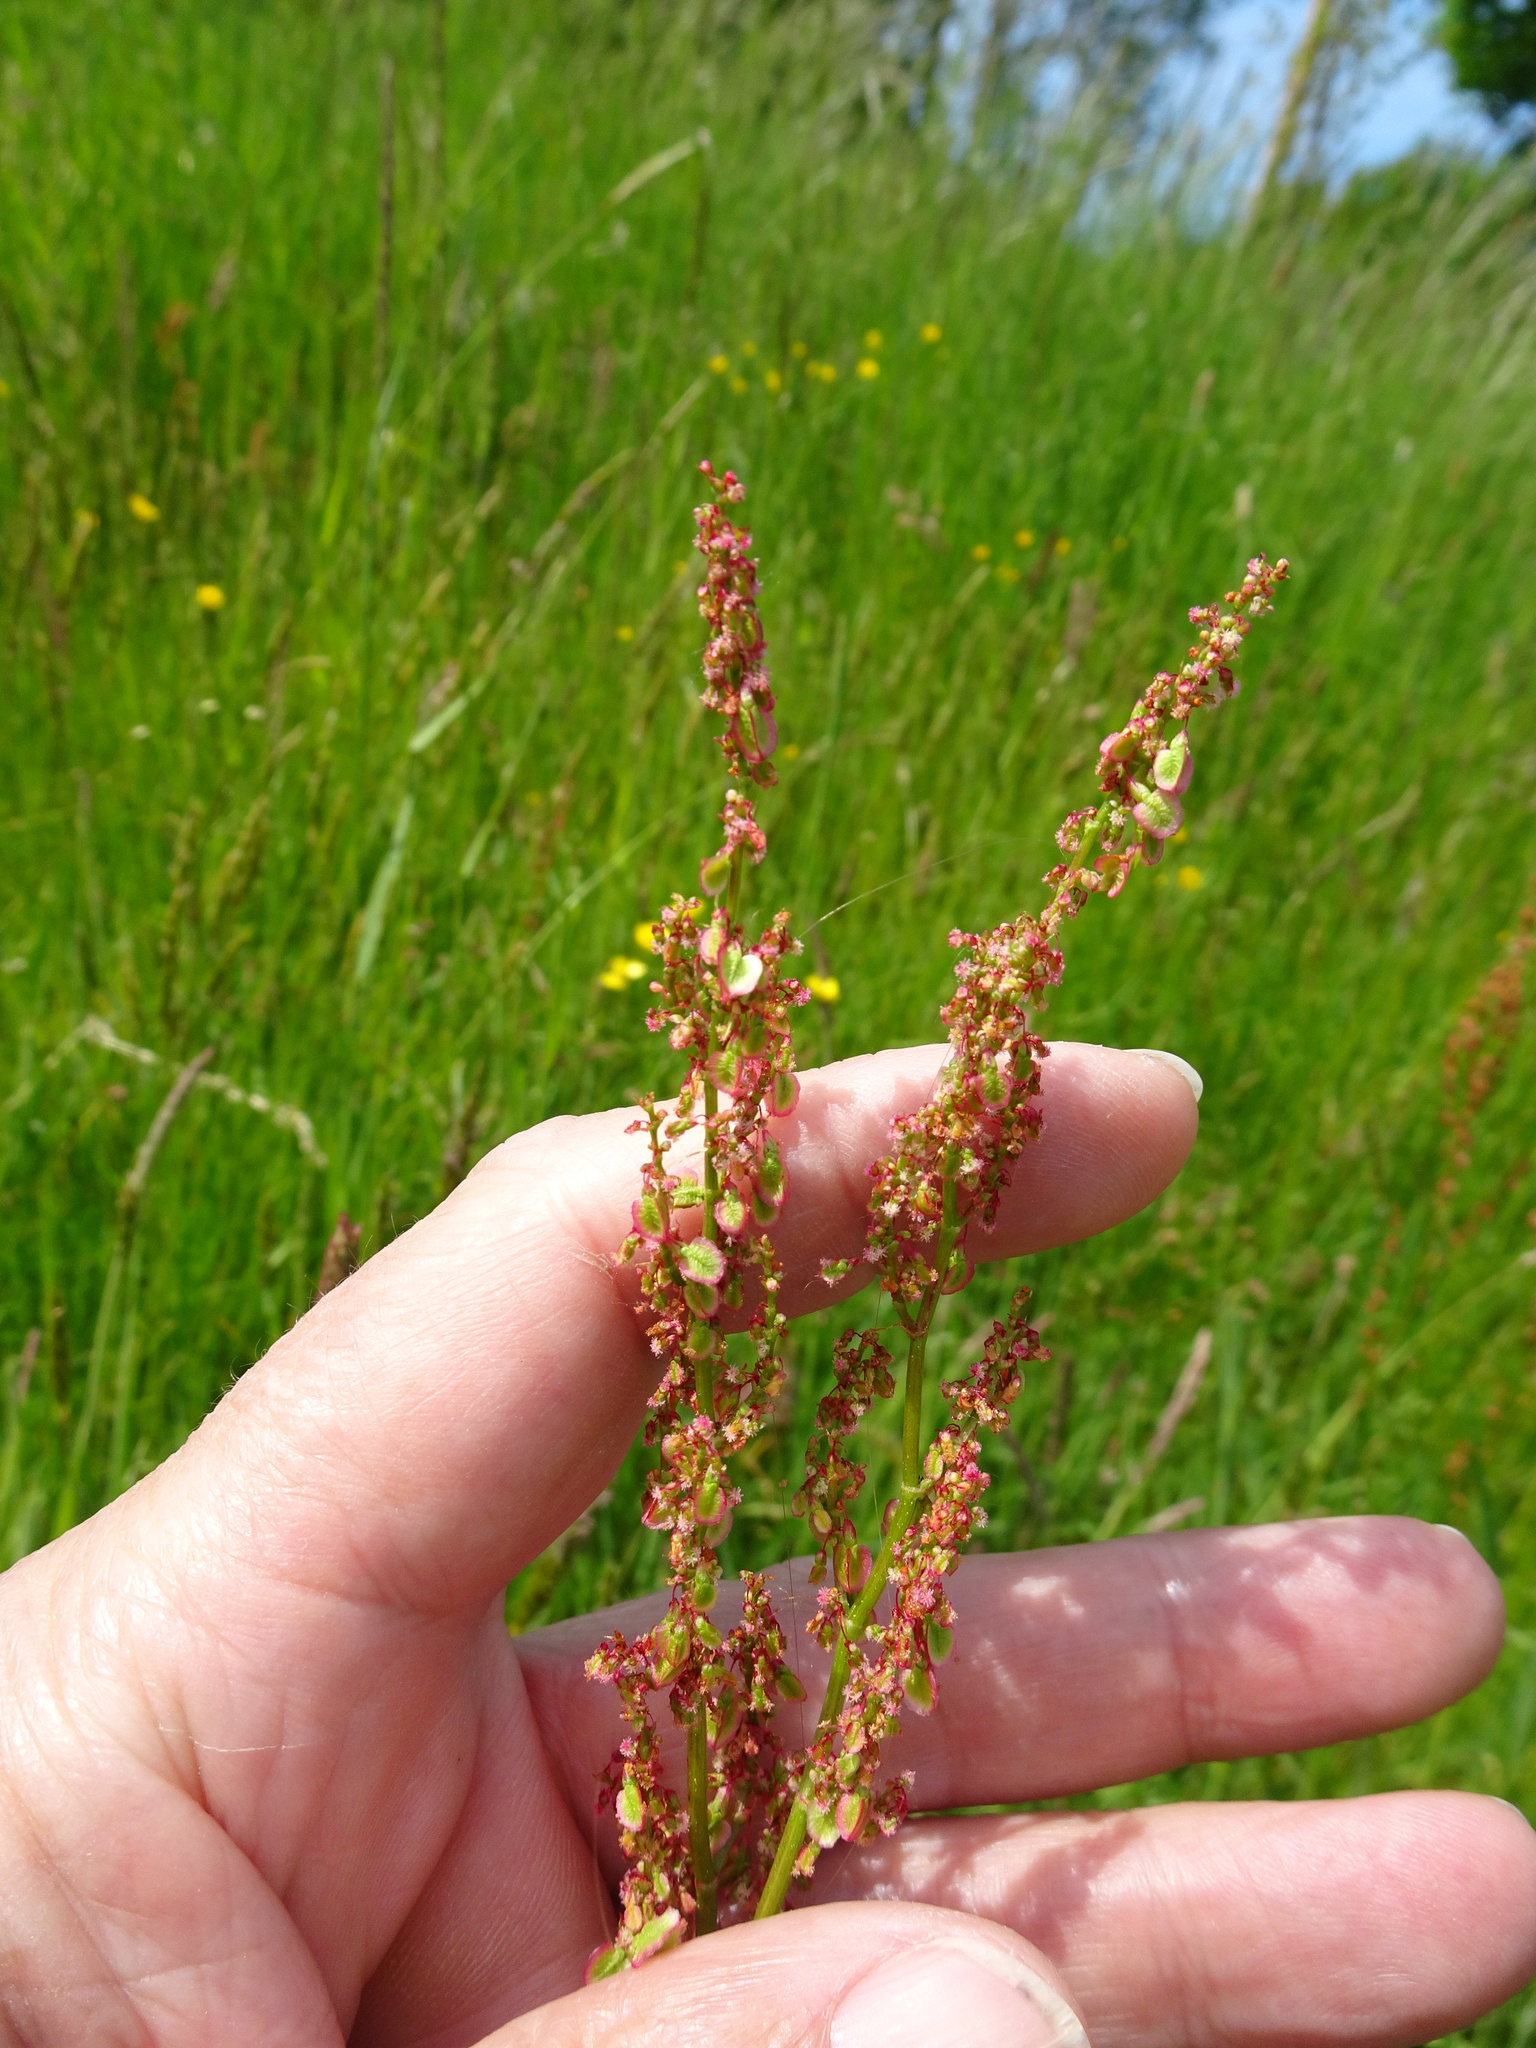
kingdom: Plantae
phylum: Tracheophyta
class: Magnoliopsida
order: Caryophyllales
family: Polygonaceae
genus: Rumex
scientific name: Rumex acetosa
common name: Garden sorrel
